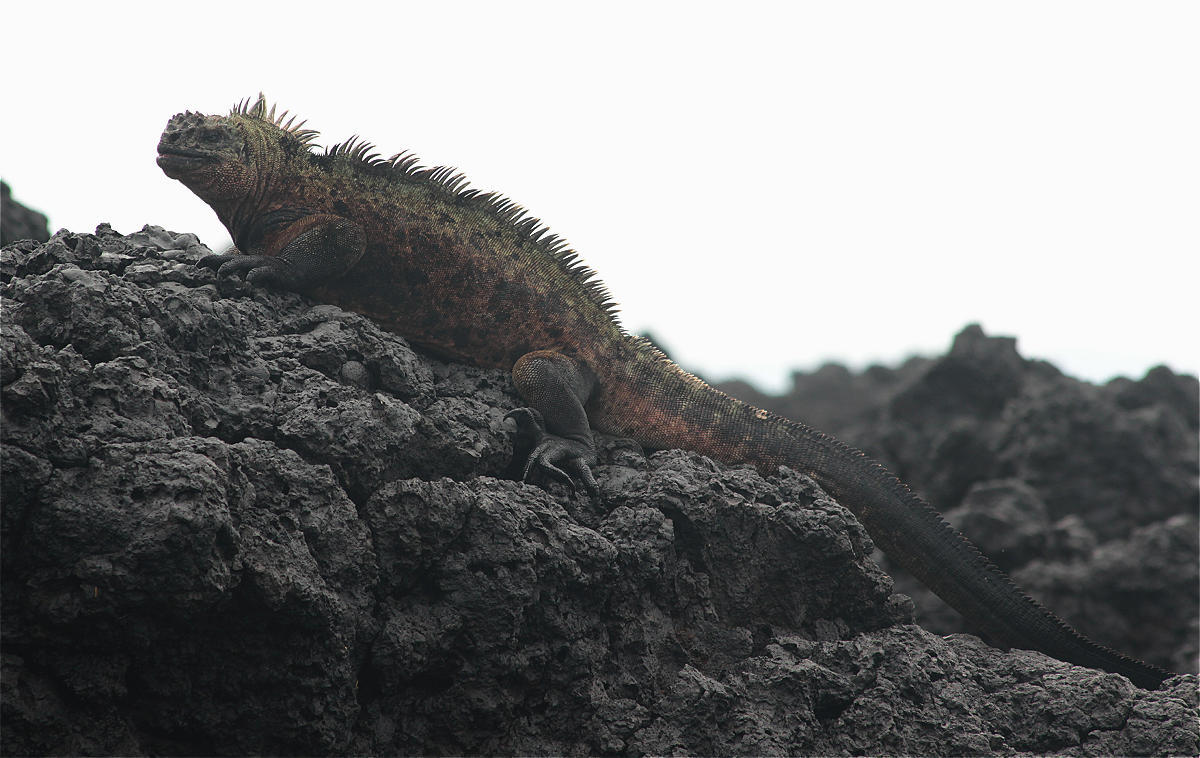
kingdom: Animalia
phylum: Chordata
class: Squamata
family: Iguanidae
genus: Amblyrhynchus
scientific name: Amblyrhynchus cristatus
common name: Marine iguana
